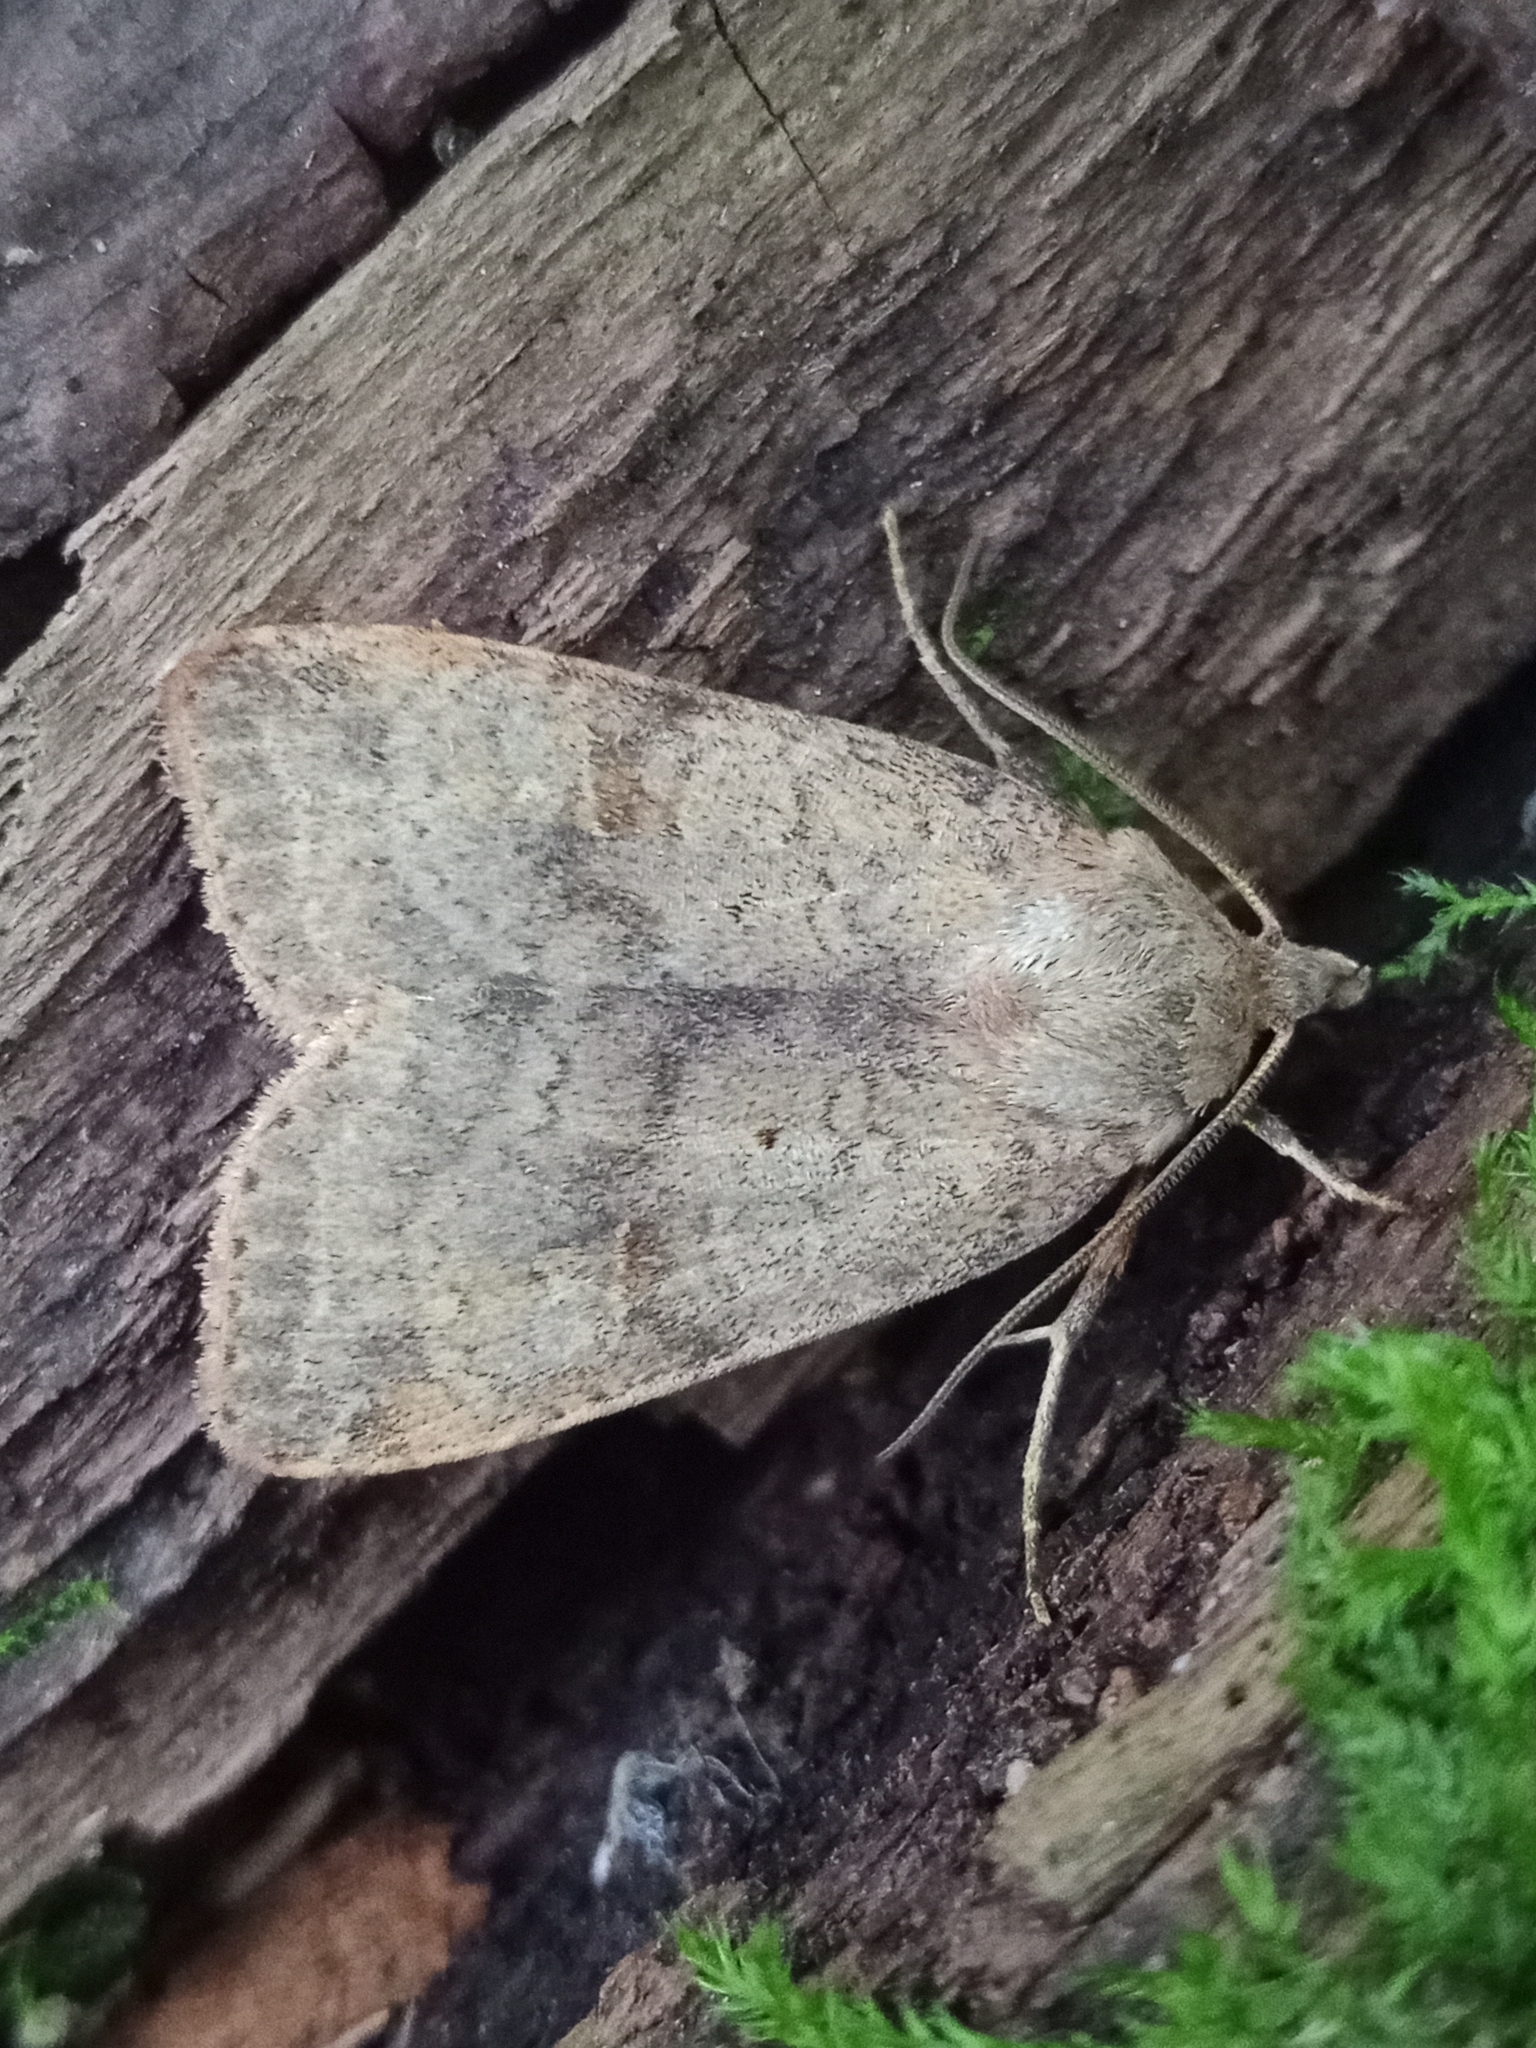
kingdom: Animalia
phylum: Arthropoda
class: Insecta
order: Lepidoptera
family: Noctuidae
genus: Diarsia
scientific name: Diarsia dahlii
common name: Barred chestnut
